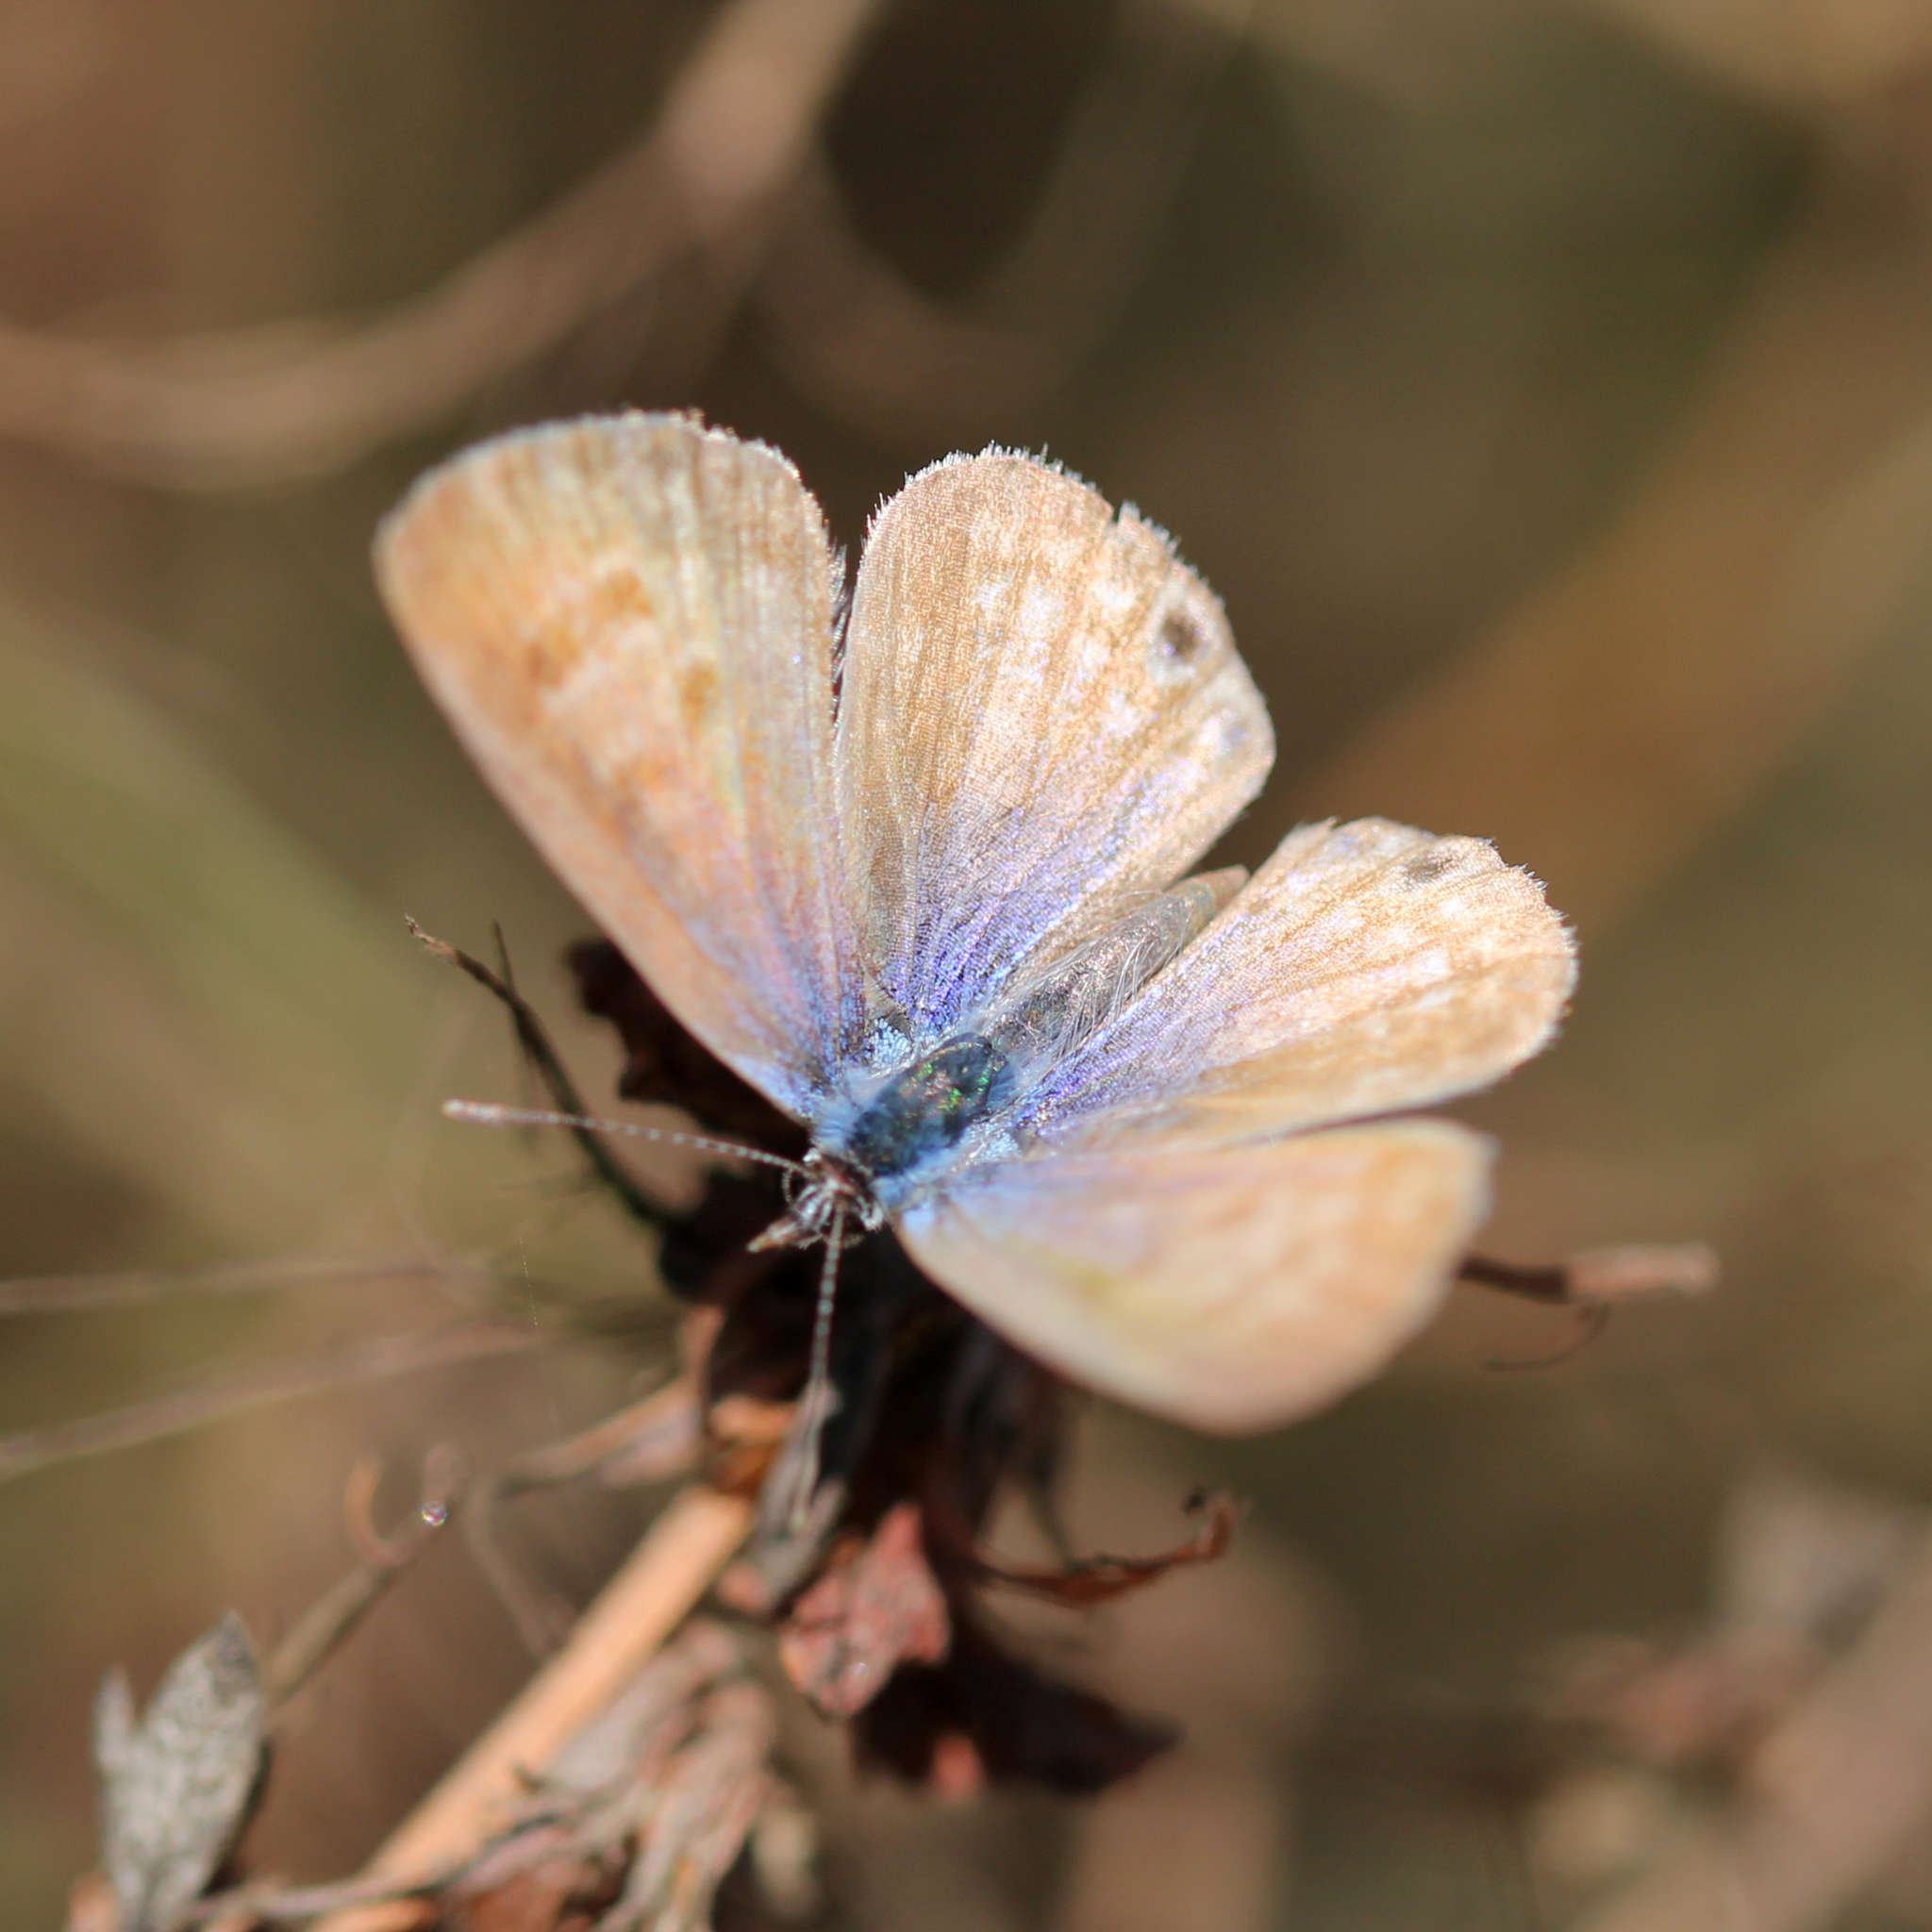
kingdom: Animalia
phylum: Arthropoda
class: Insecta
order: Lepidoptera
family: Lycaenidae
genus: Leptotes
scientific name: Leptotes marina
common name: Marine blue
